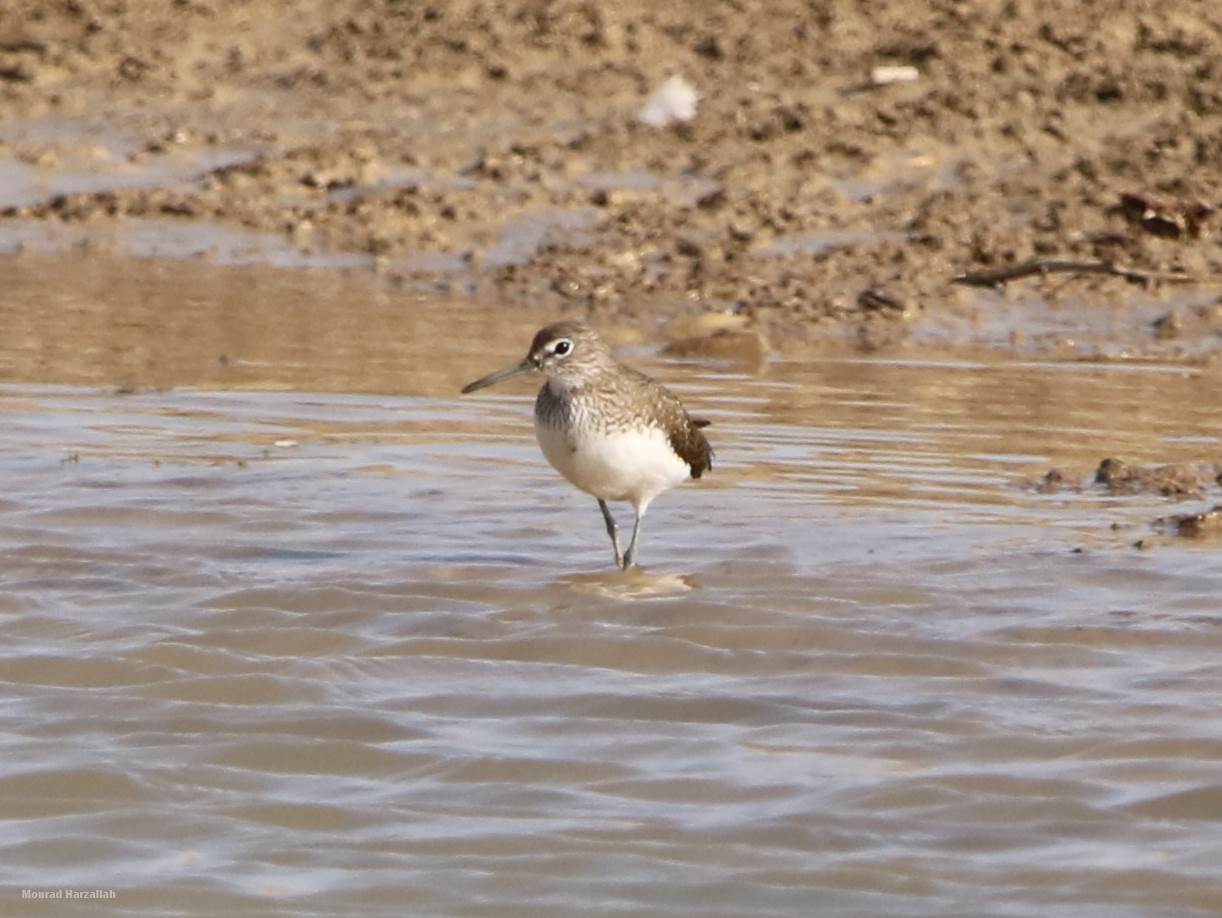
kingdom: Animalia
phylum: Chordata
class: Aves
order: Charadriiformes
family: Scolopacidae
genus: Tringa
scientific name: Tringa ochropus
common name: Green sandpiper
